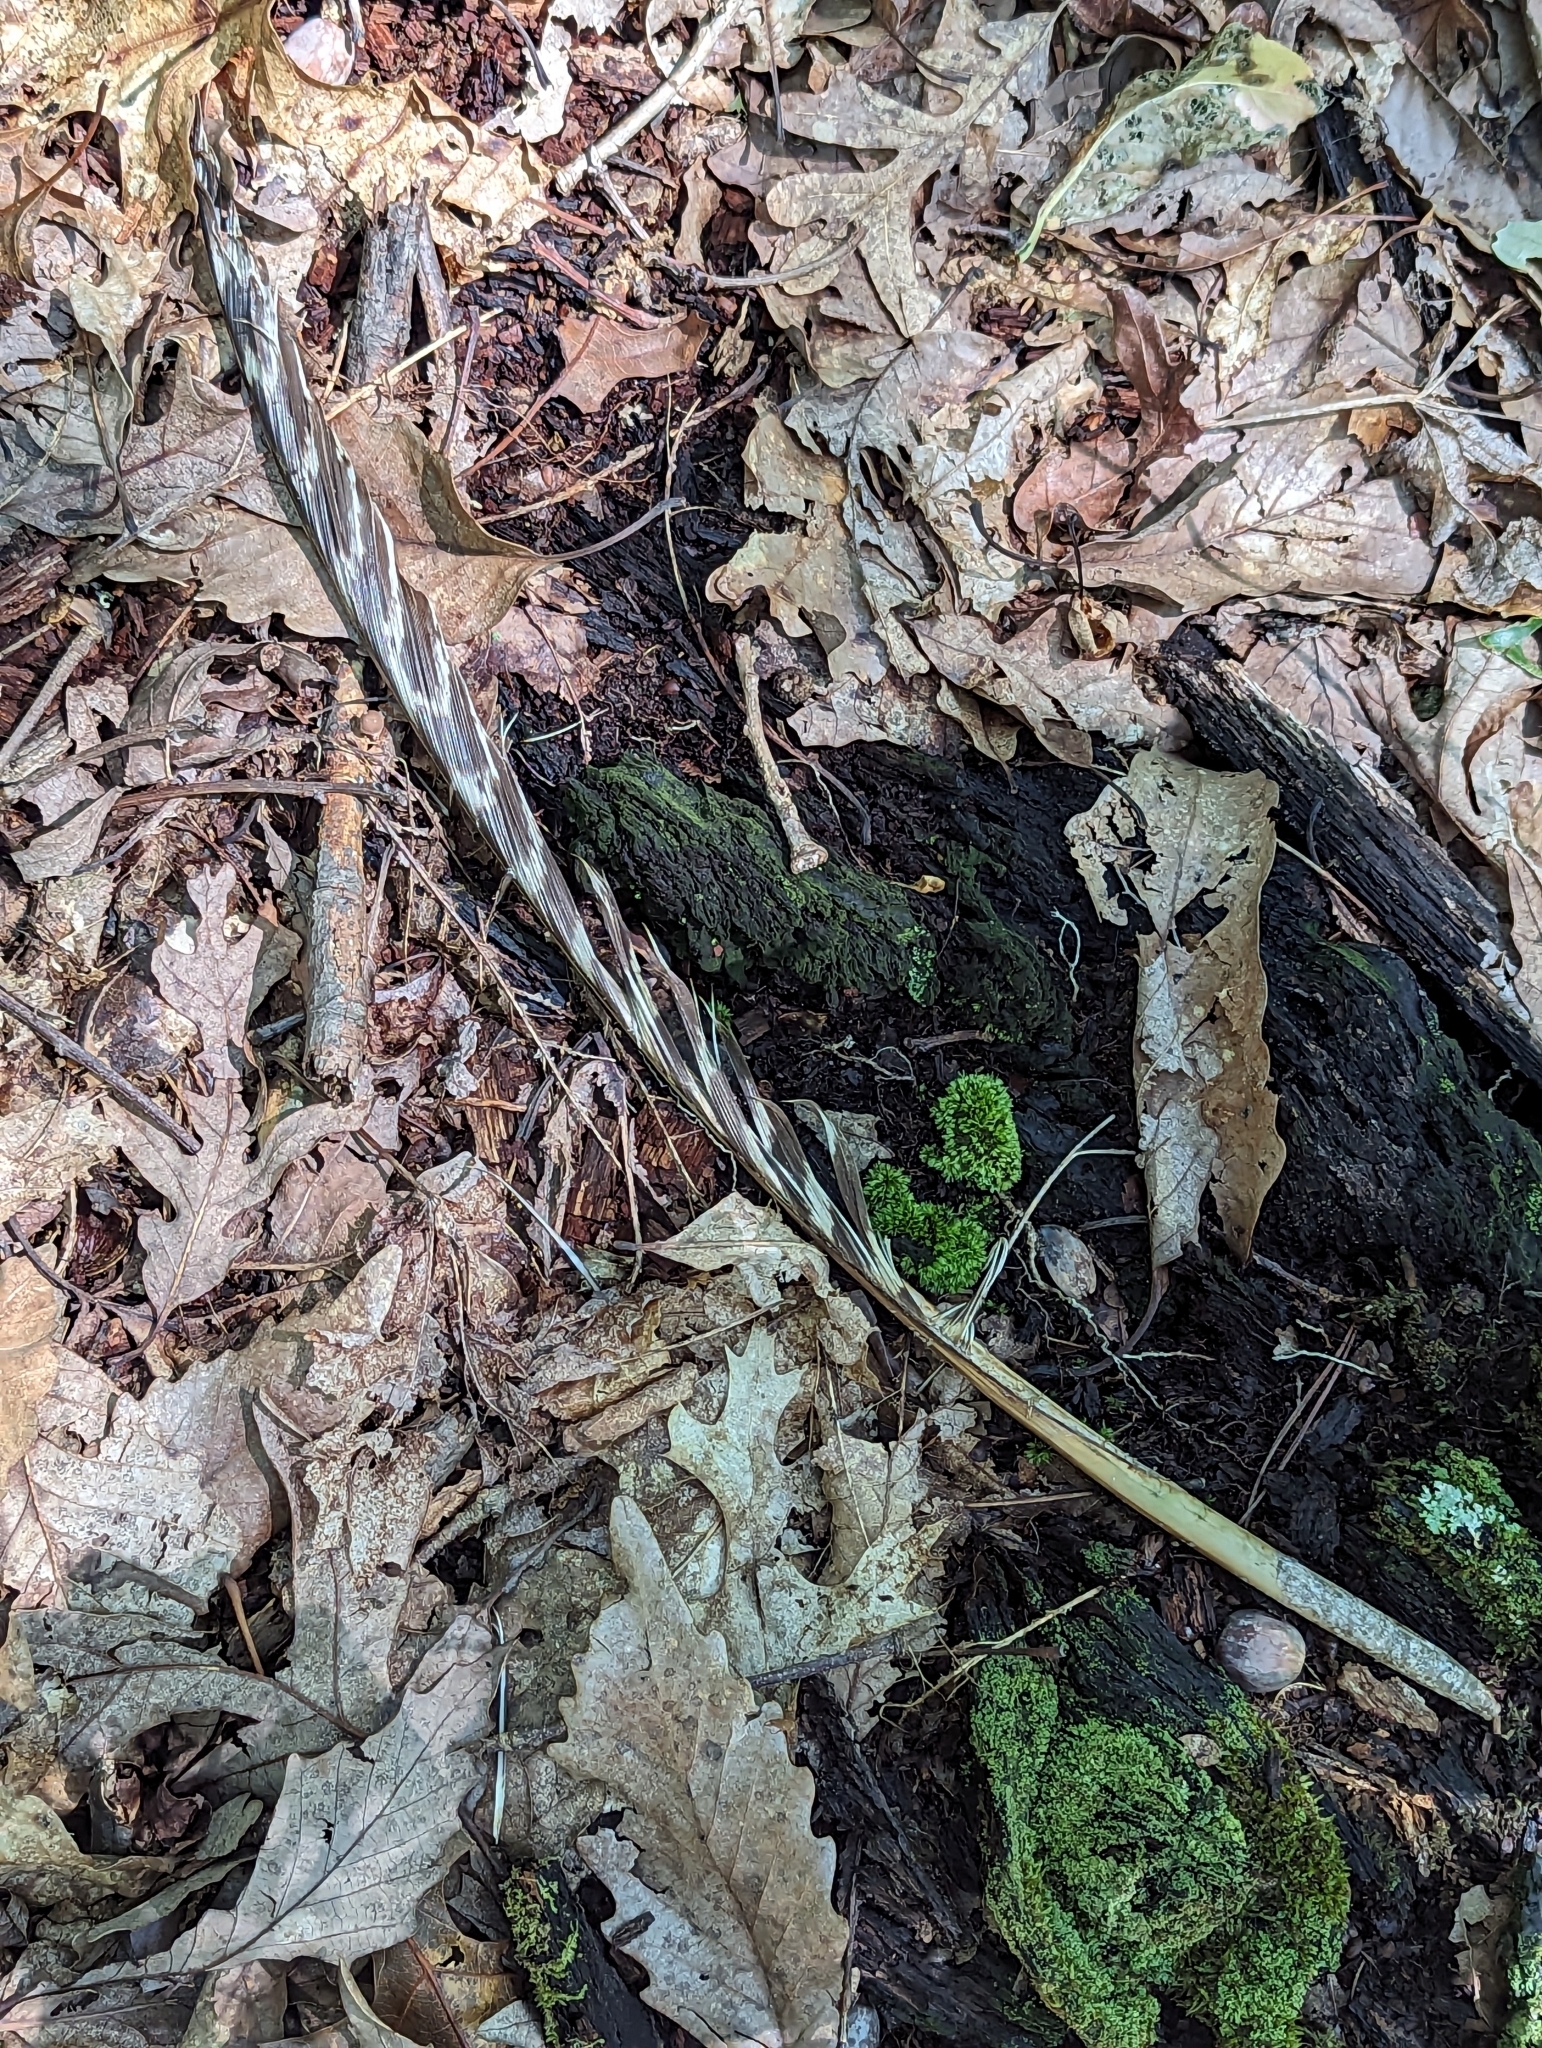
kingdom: Animalia
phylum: Chordata
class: Aves
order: Galliformes
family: Phasianidae
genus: Meleagris
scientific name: Meleagris gallopavo
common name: Wild turkey
